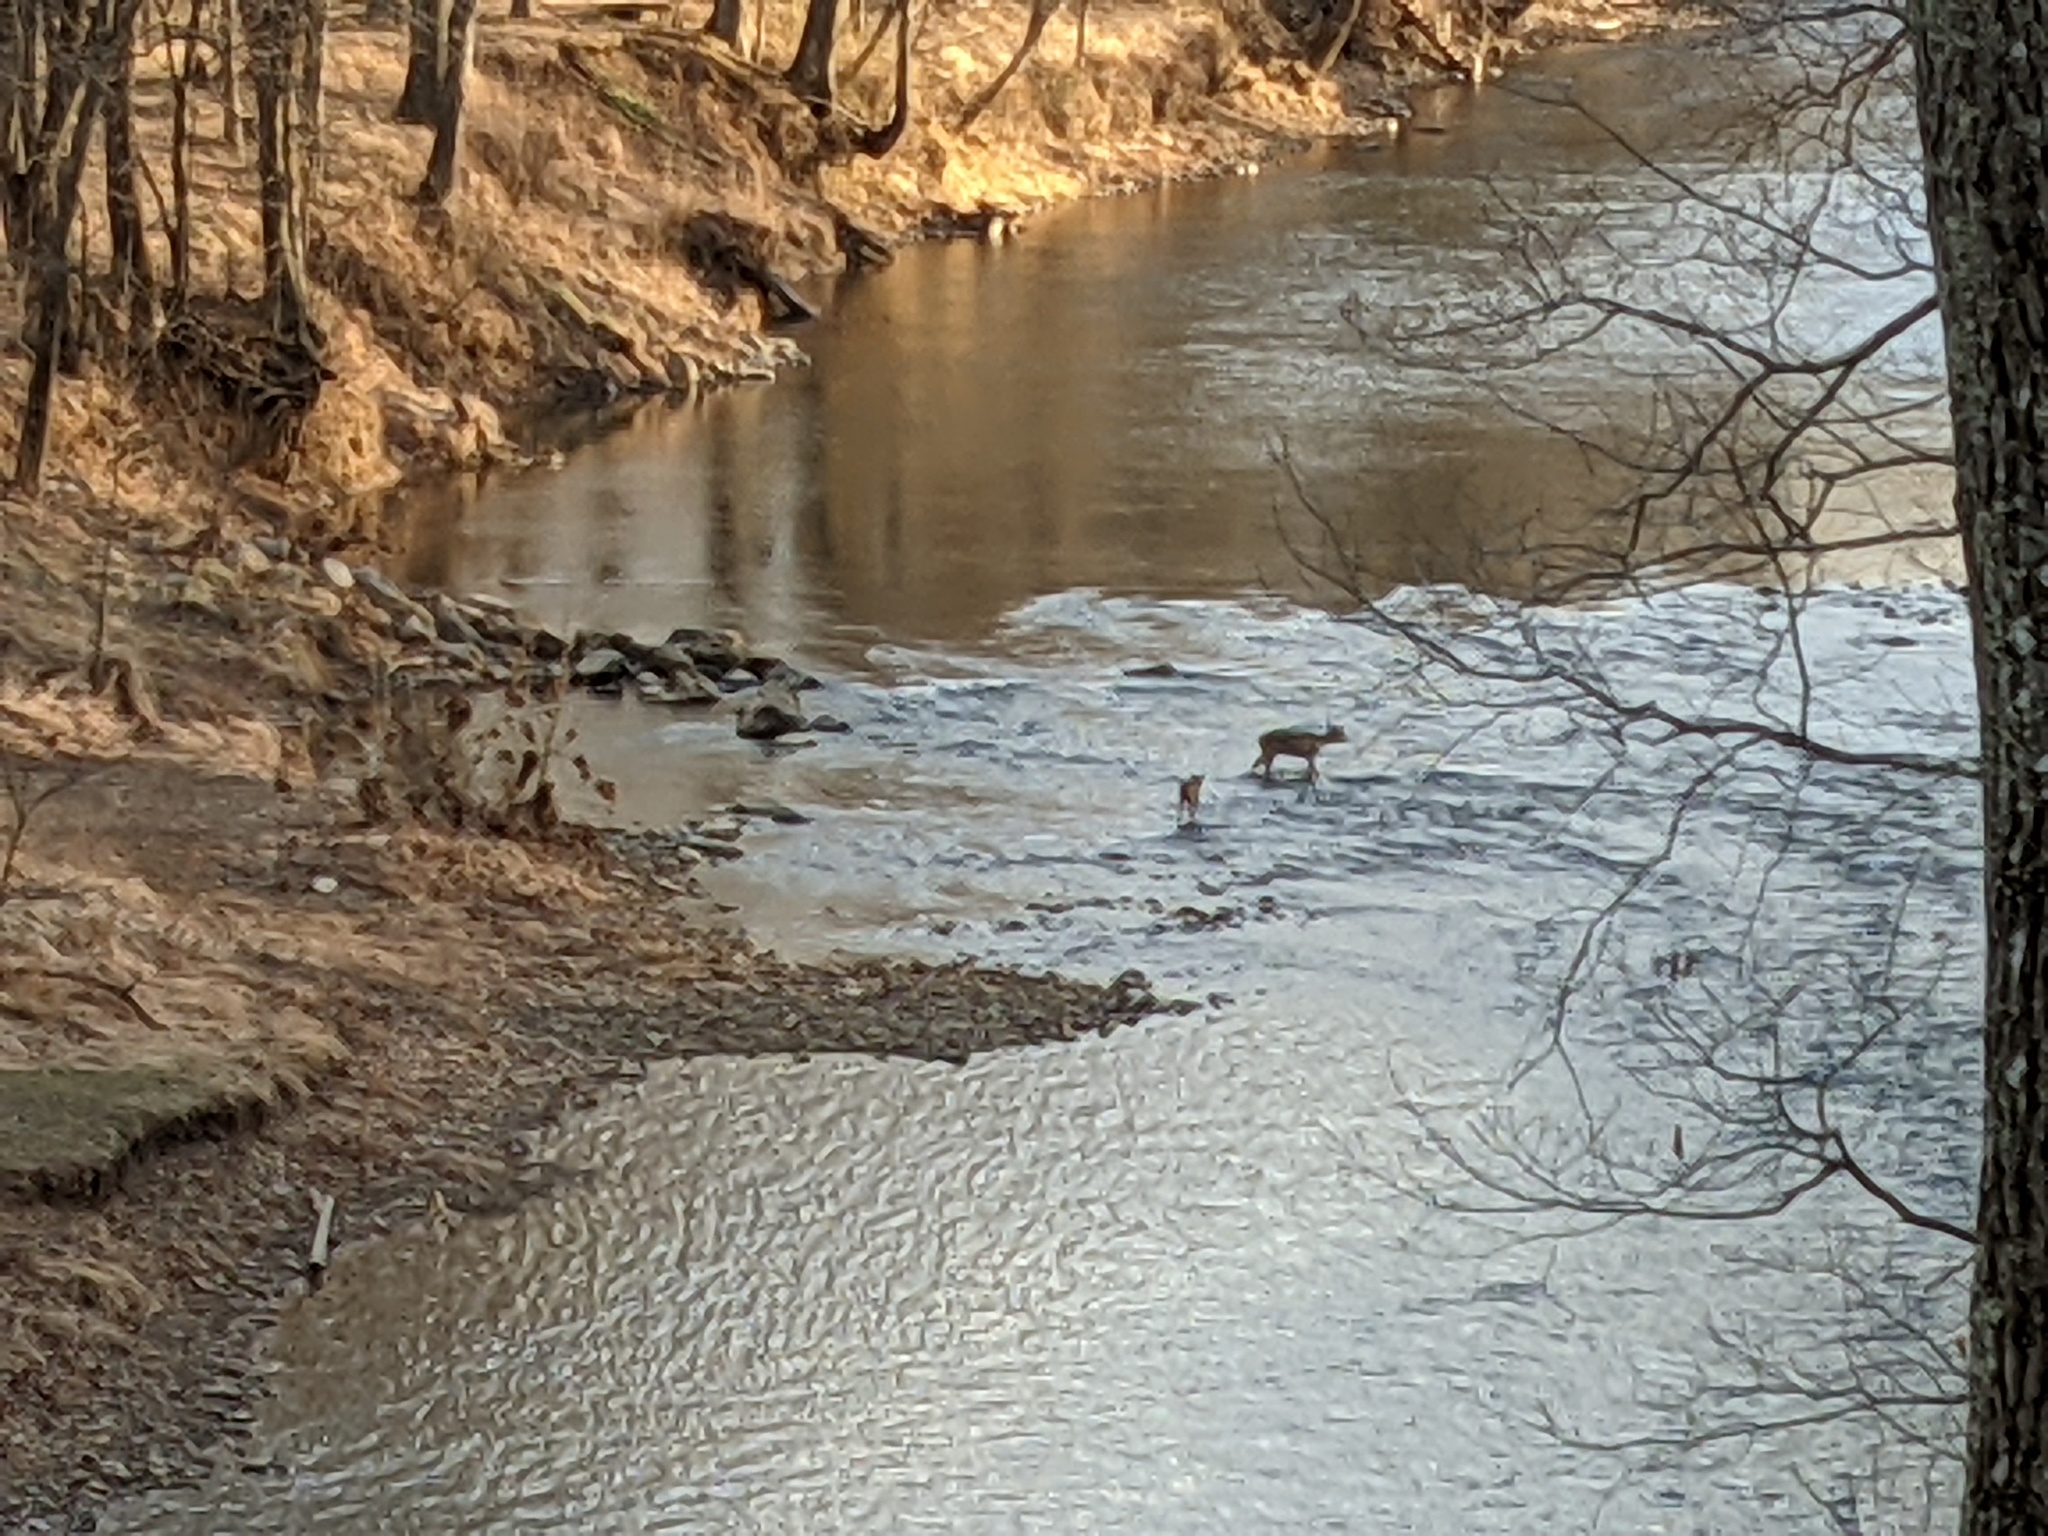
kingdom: Animalia
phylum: Chordata
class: Mammalia
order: Artiodactyla
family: Cervidae
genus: Odocoileus
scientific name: Odocoileus virginianus
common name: White-tailed deer
